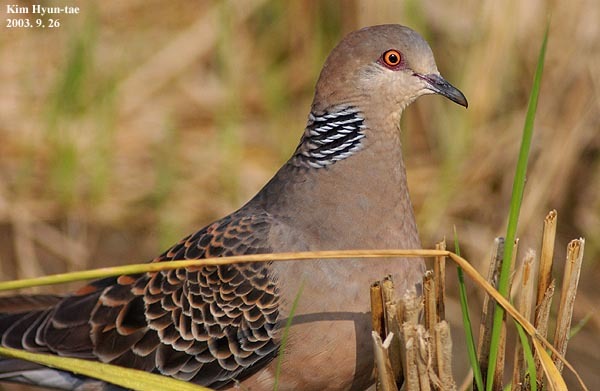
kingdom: Animalia
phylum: Chordata
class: Aves
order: Columbiformes
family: Columbidae
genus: Streptopelia
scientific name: Streptopelia orientalis
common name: Oriental turtle dove
